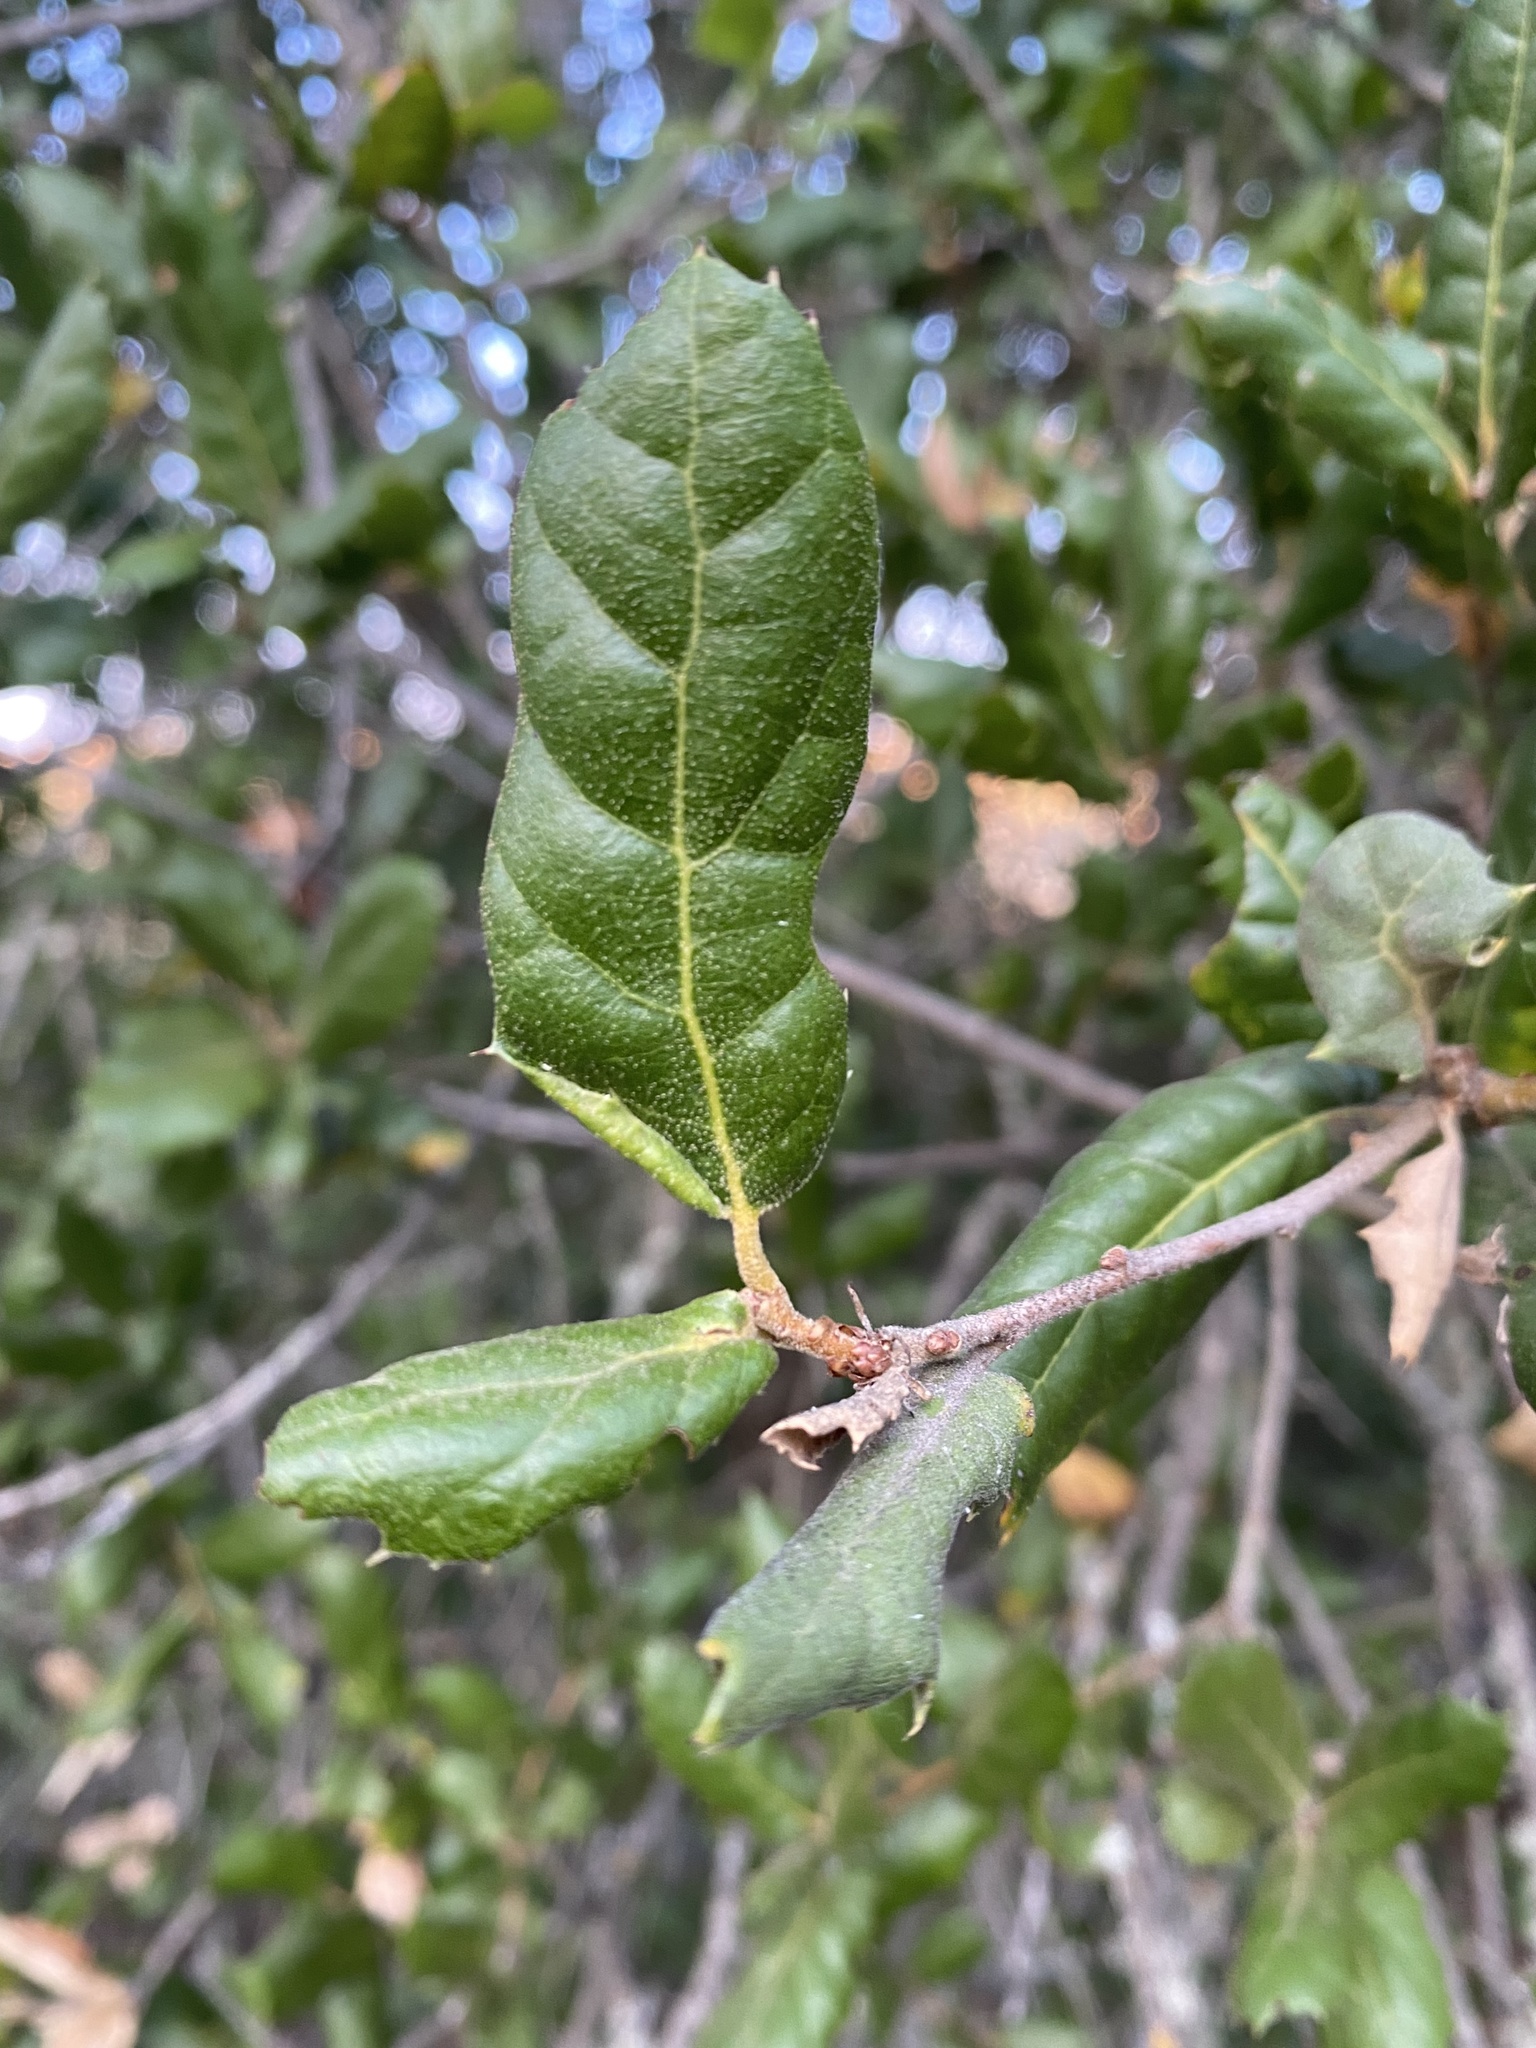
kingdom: Plantae
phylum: Tracheophyta
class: Magnoliopsida
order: Fagales
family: Fagaceae
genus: Quercus
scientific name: Quercus agrifolia
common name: California live oak
